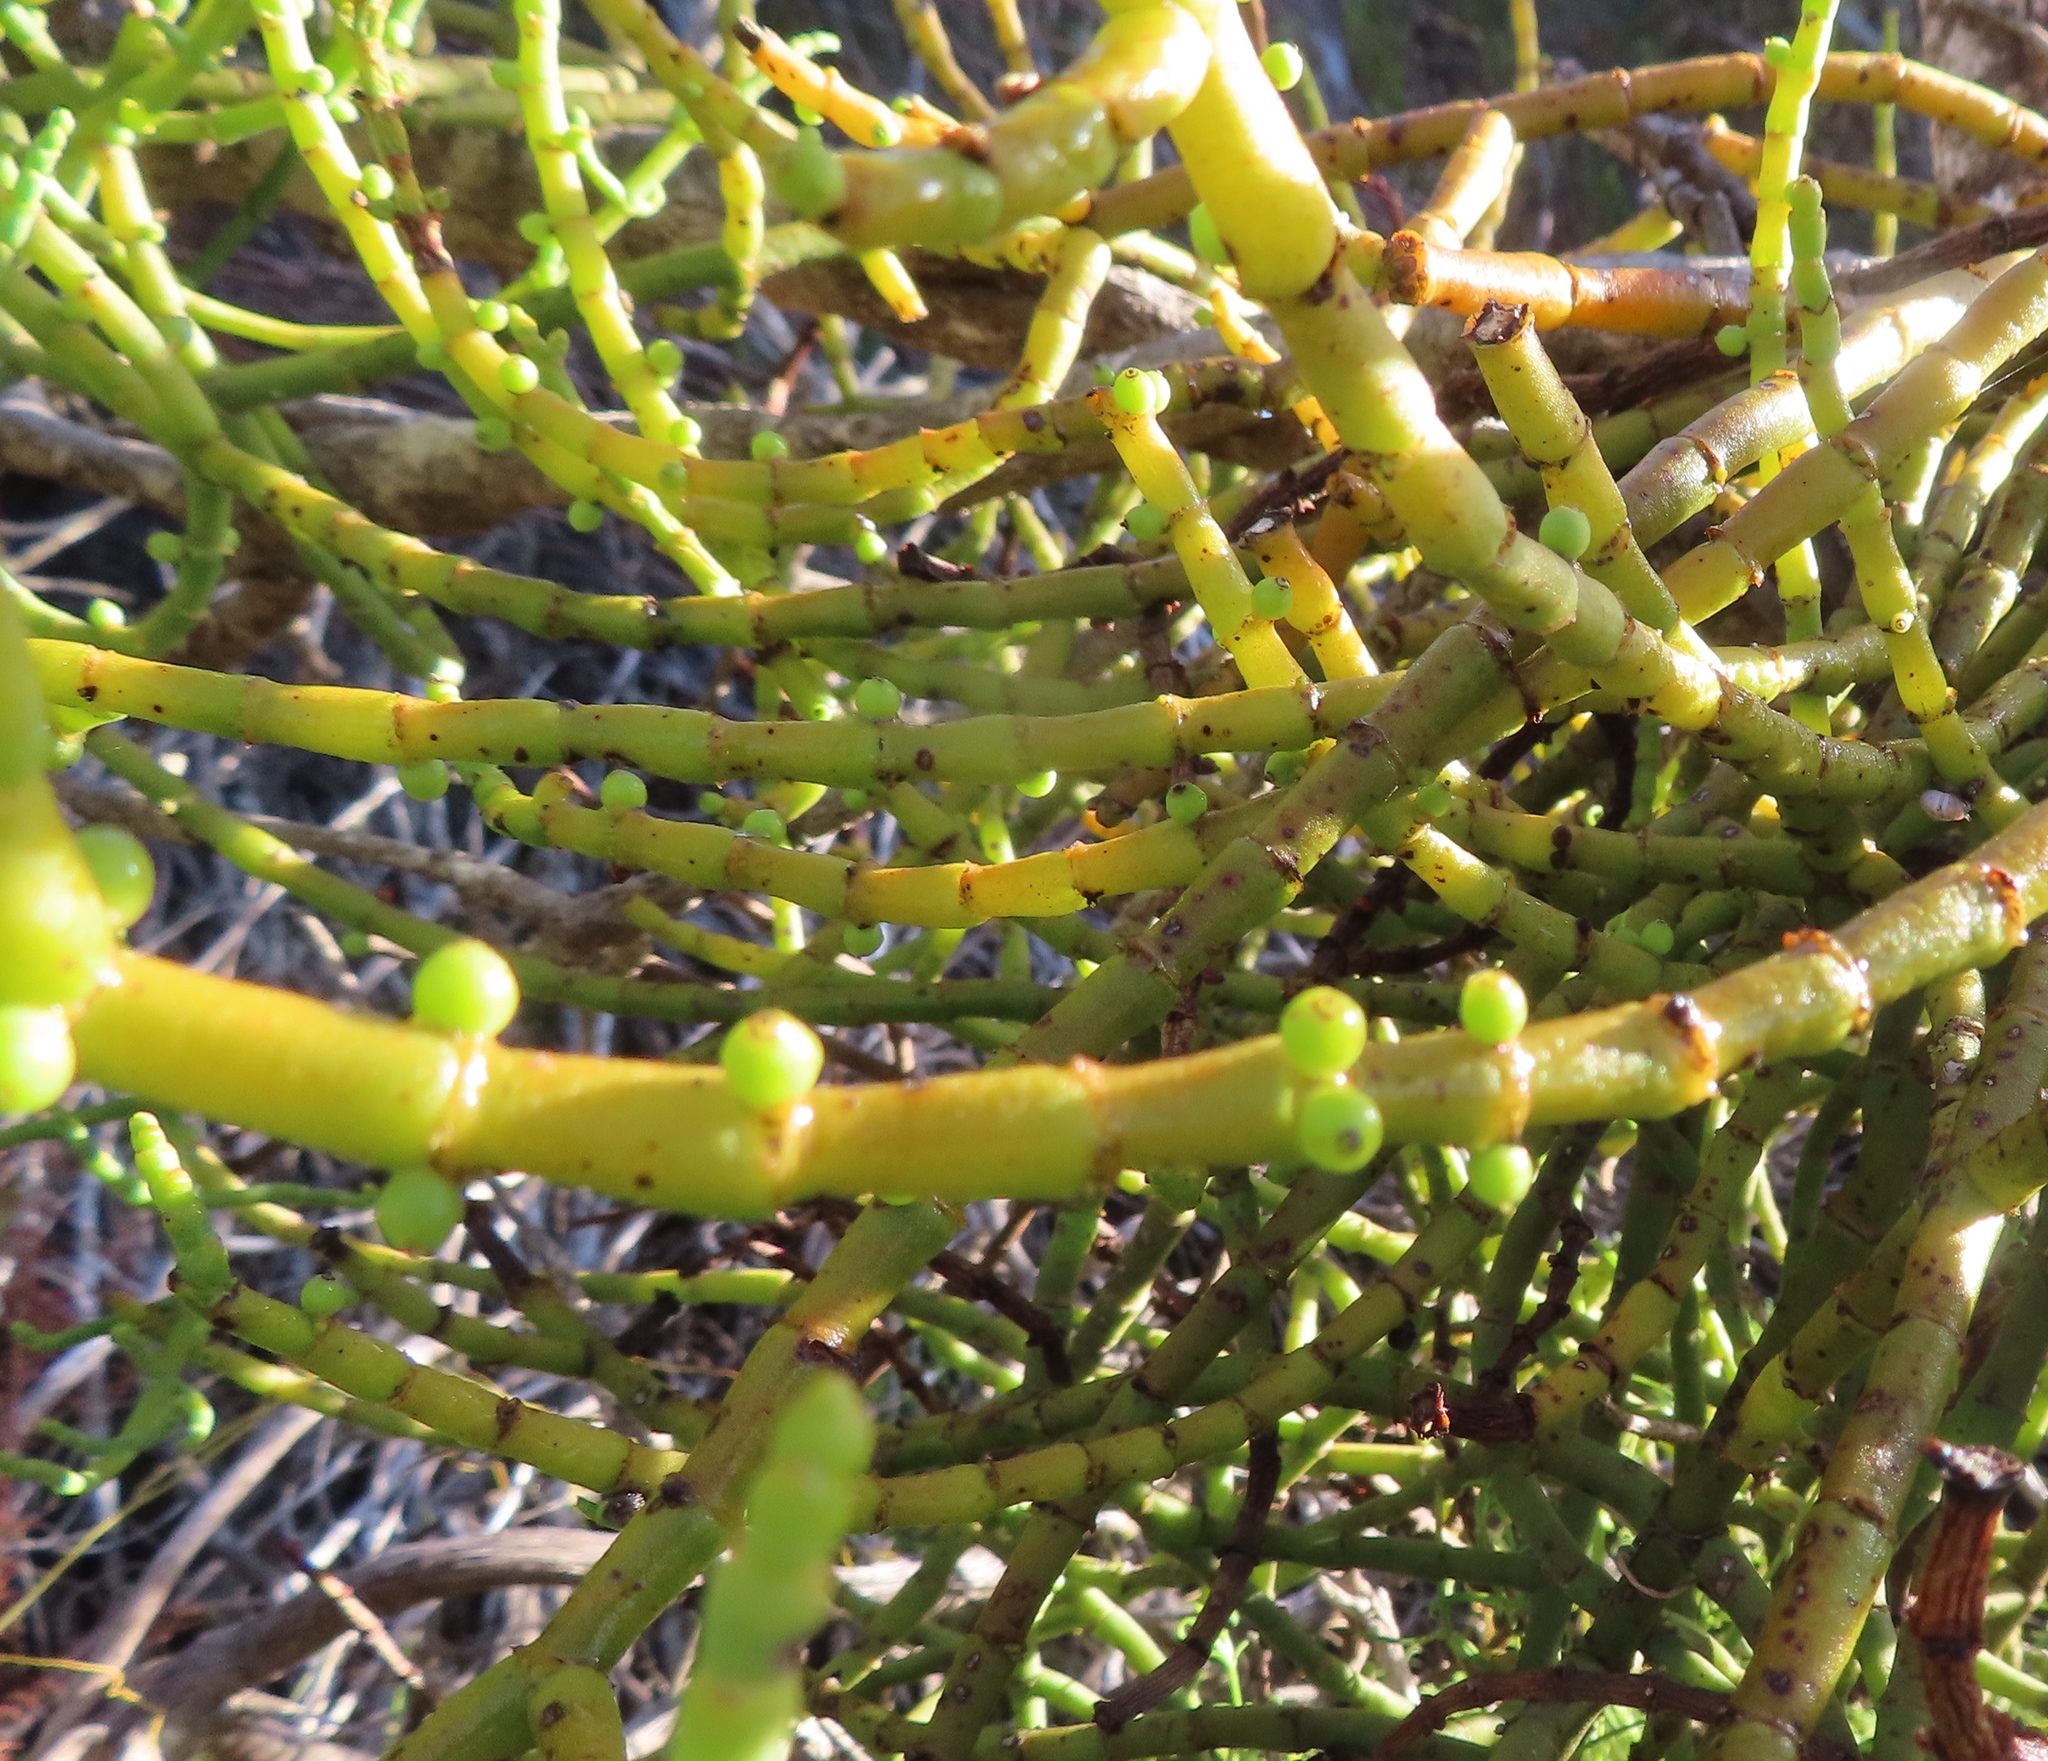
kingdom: Plantae
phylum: Tracheophyta
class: Magnoliopsida
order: Santalales
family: Viscaceae
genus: Viscum
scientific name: Viscum capense
